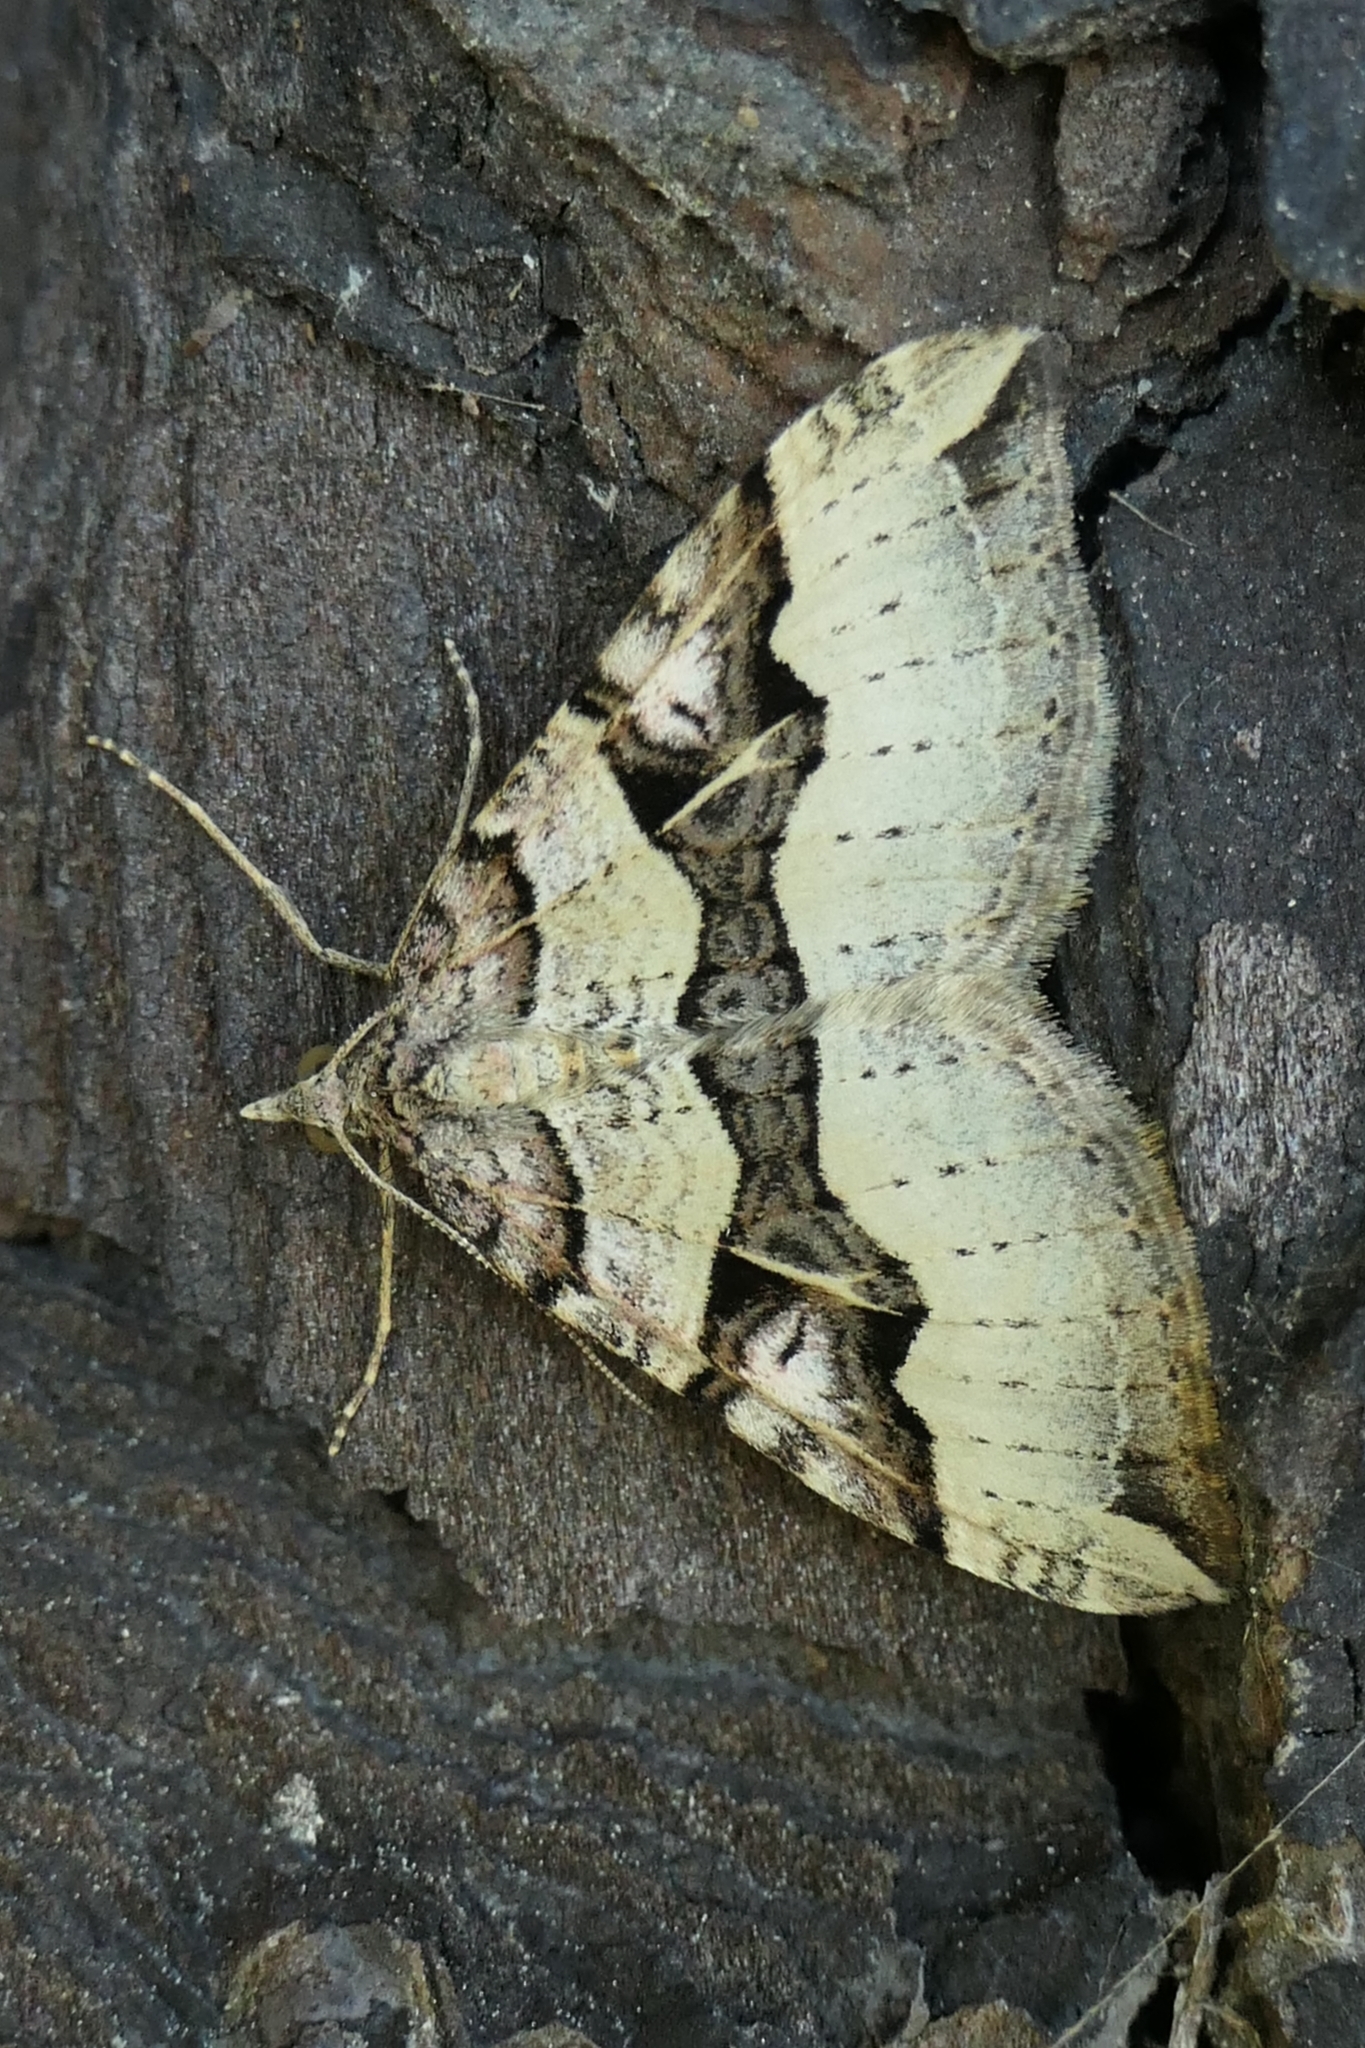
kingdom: Animalia
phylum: Arthropoda
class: Insecta
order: Lepidoptera
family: Geometridae
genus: Xanthorhoe
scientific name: Xanthorhoe semifissata
